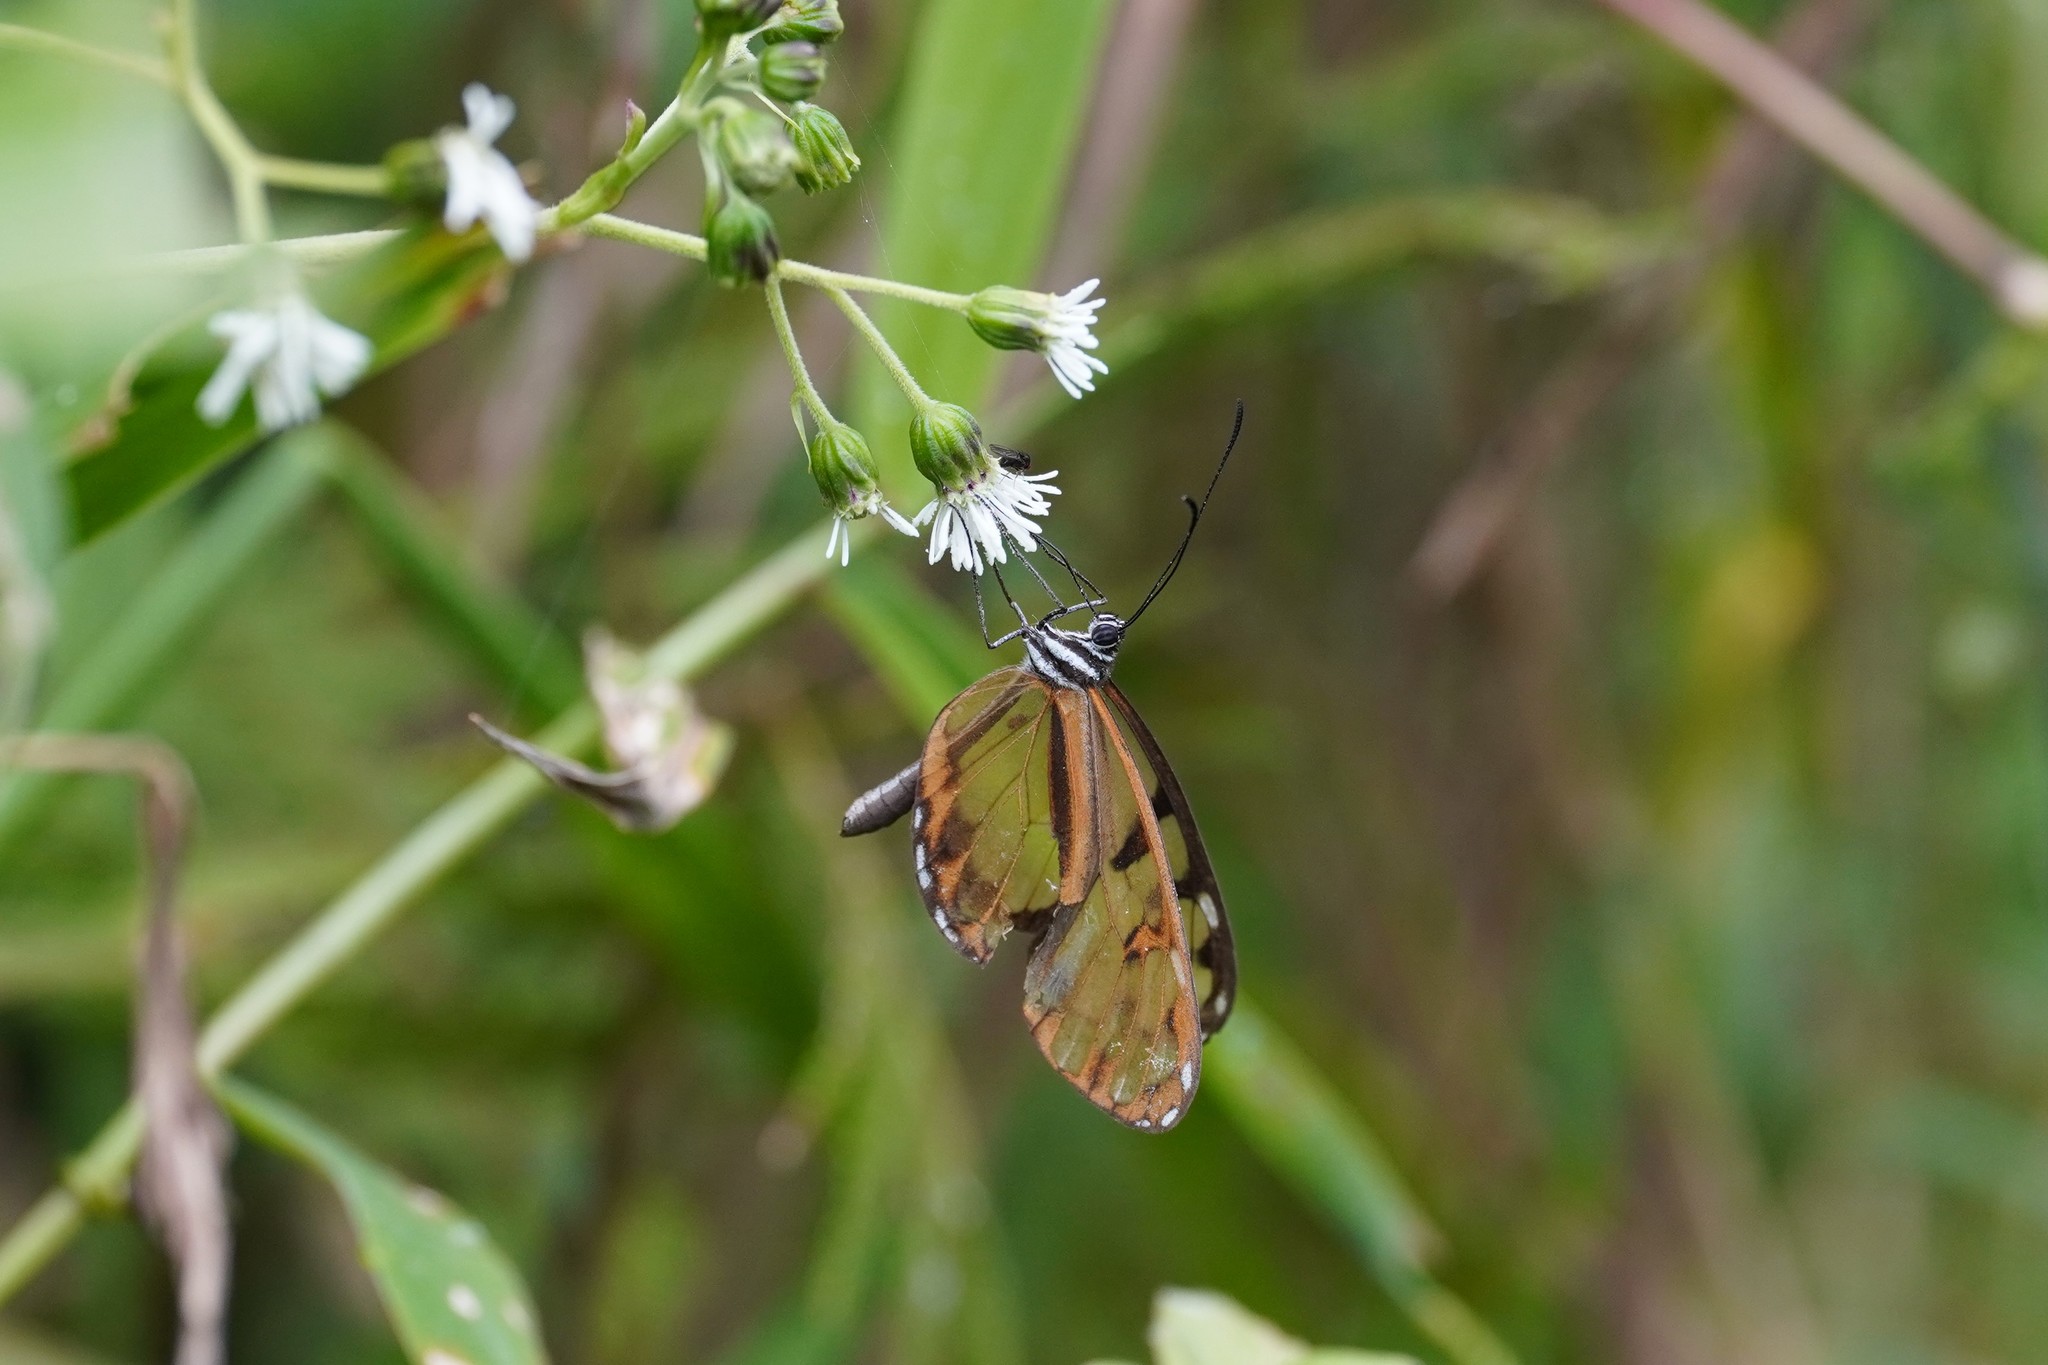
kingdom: Animalia
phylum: Arthropoda
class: Insecta
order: Lepidoptera
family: Nymphalidae
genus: Oleria
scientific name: Oleria baizana
